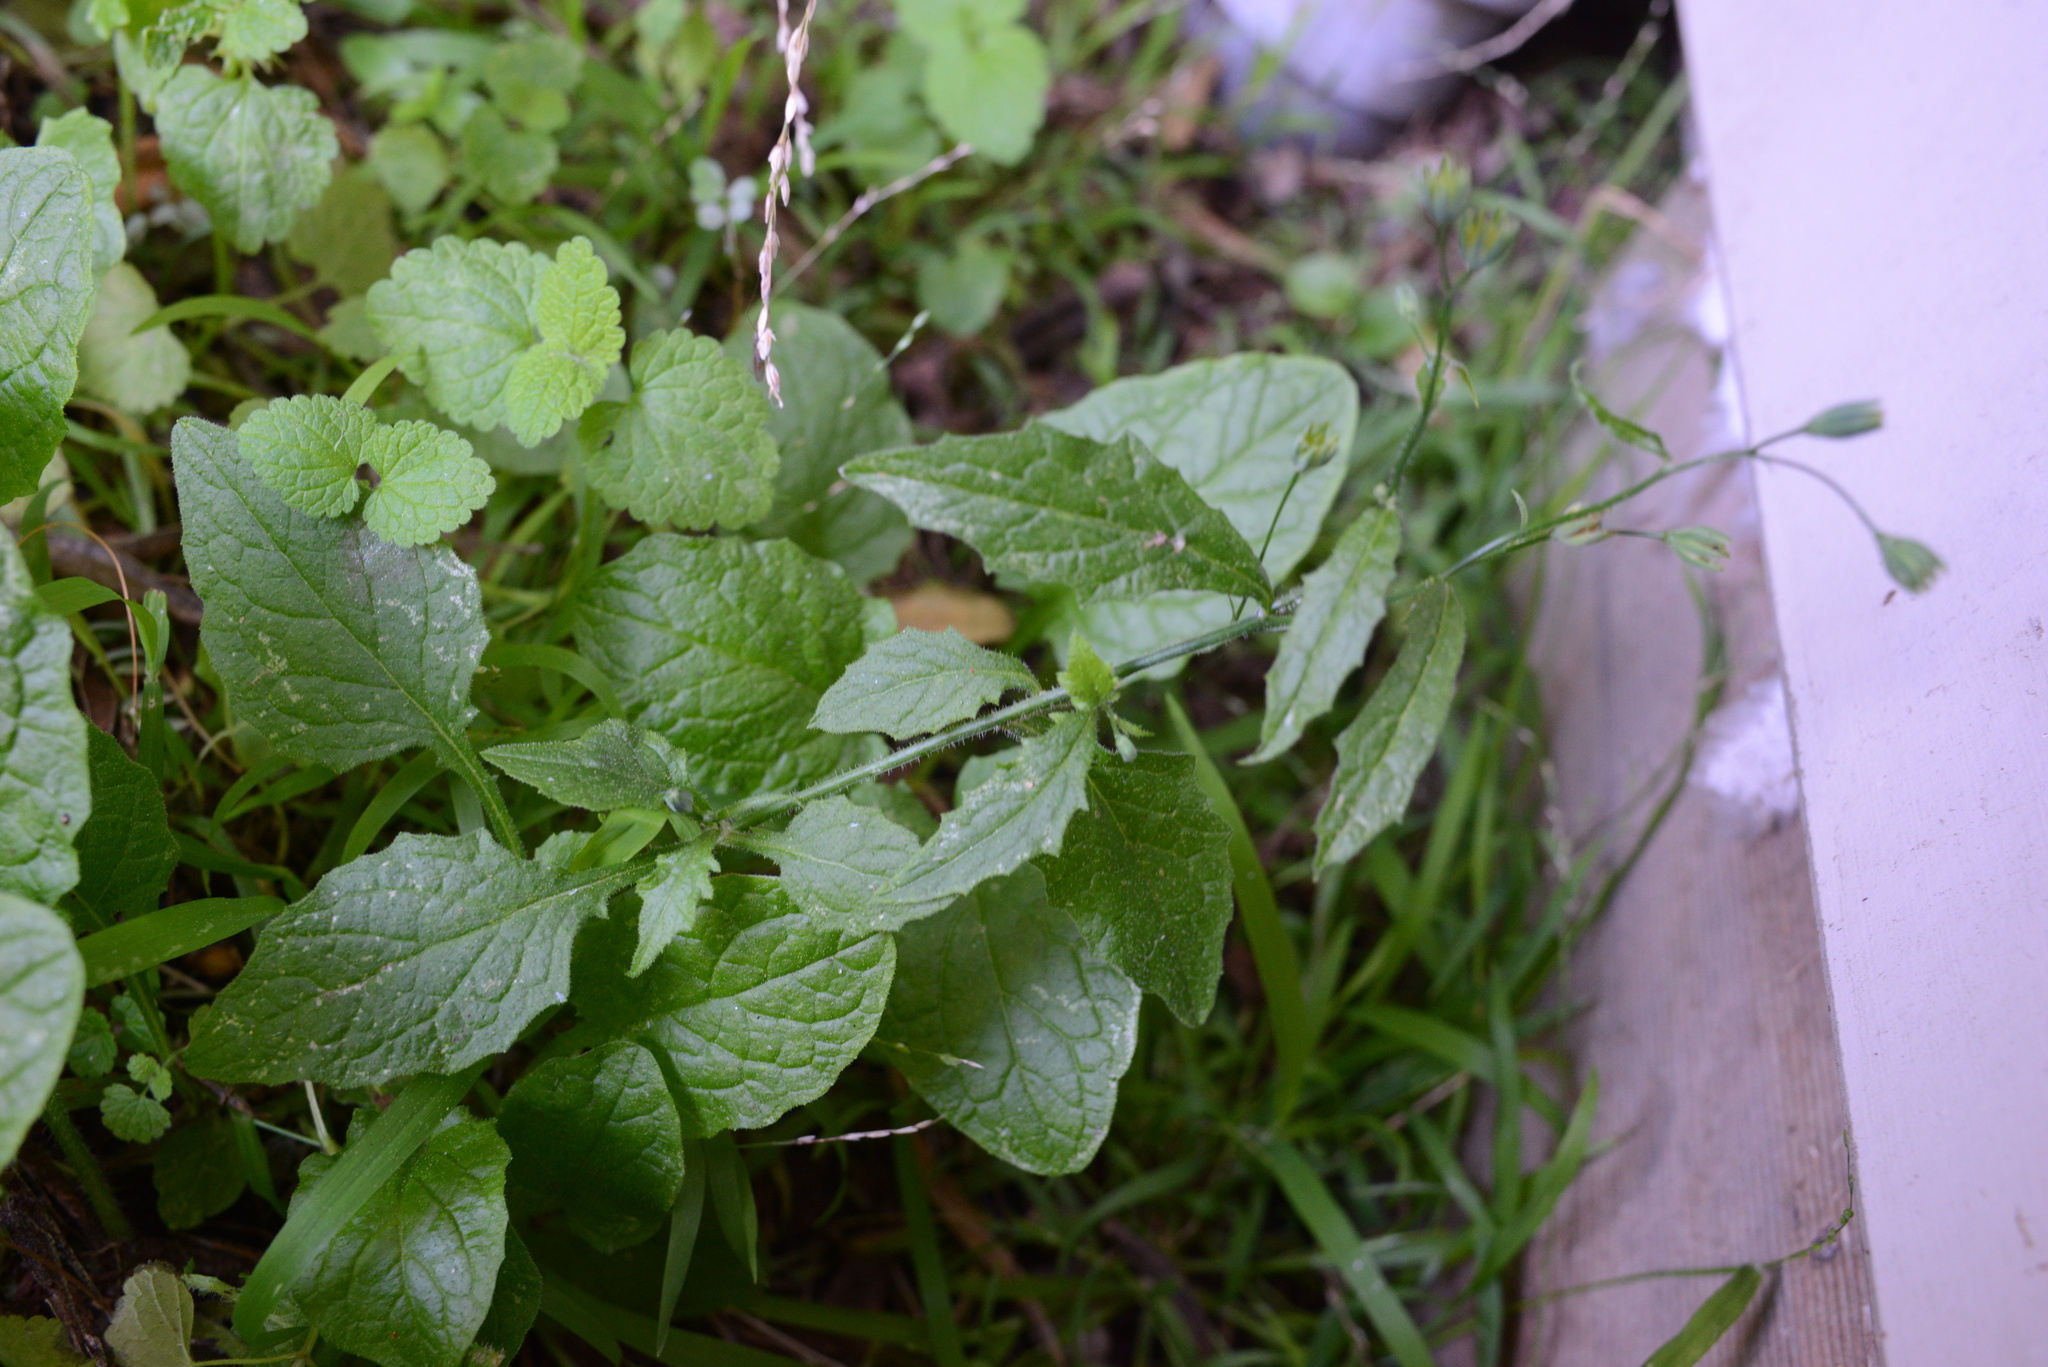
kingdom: Plantae
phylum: Tracheophyta
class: Magnoliopsida
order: Asterales
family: Asteraceae
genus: Lapsana
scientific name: Lapsana communis
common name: Nipplewort
